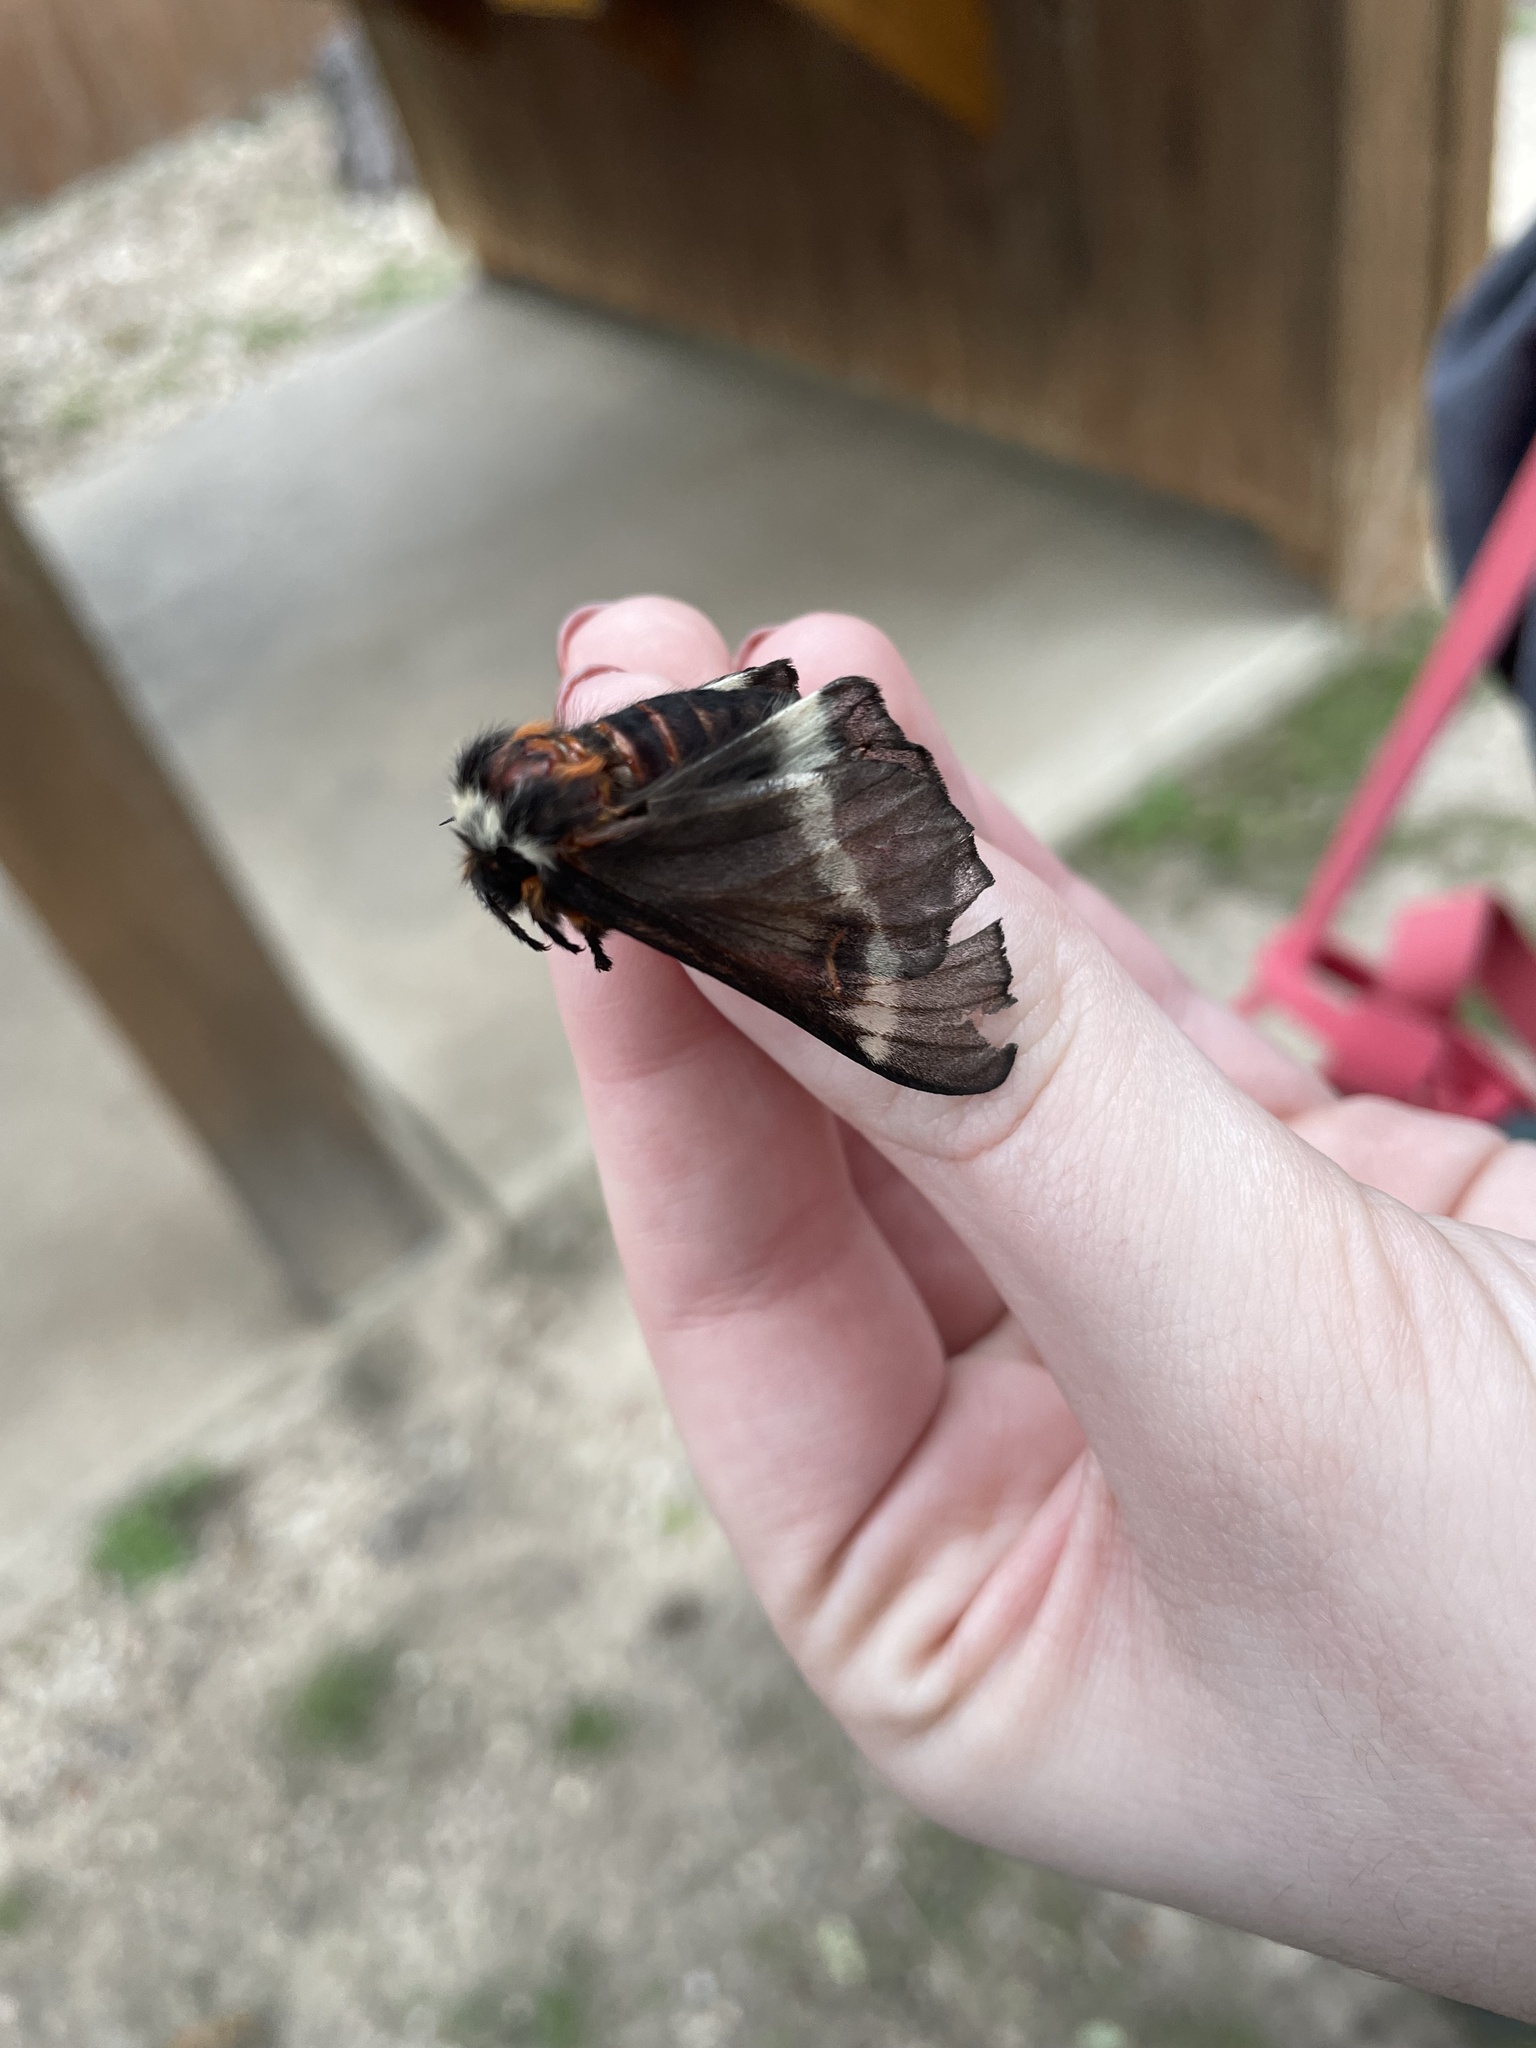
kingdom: Animalia
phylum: Arthropoda
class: Insecta
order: Lepidoptera
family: Saturniidae
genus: Hemileuca
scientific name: Hemileuca peigleri
